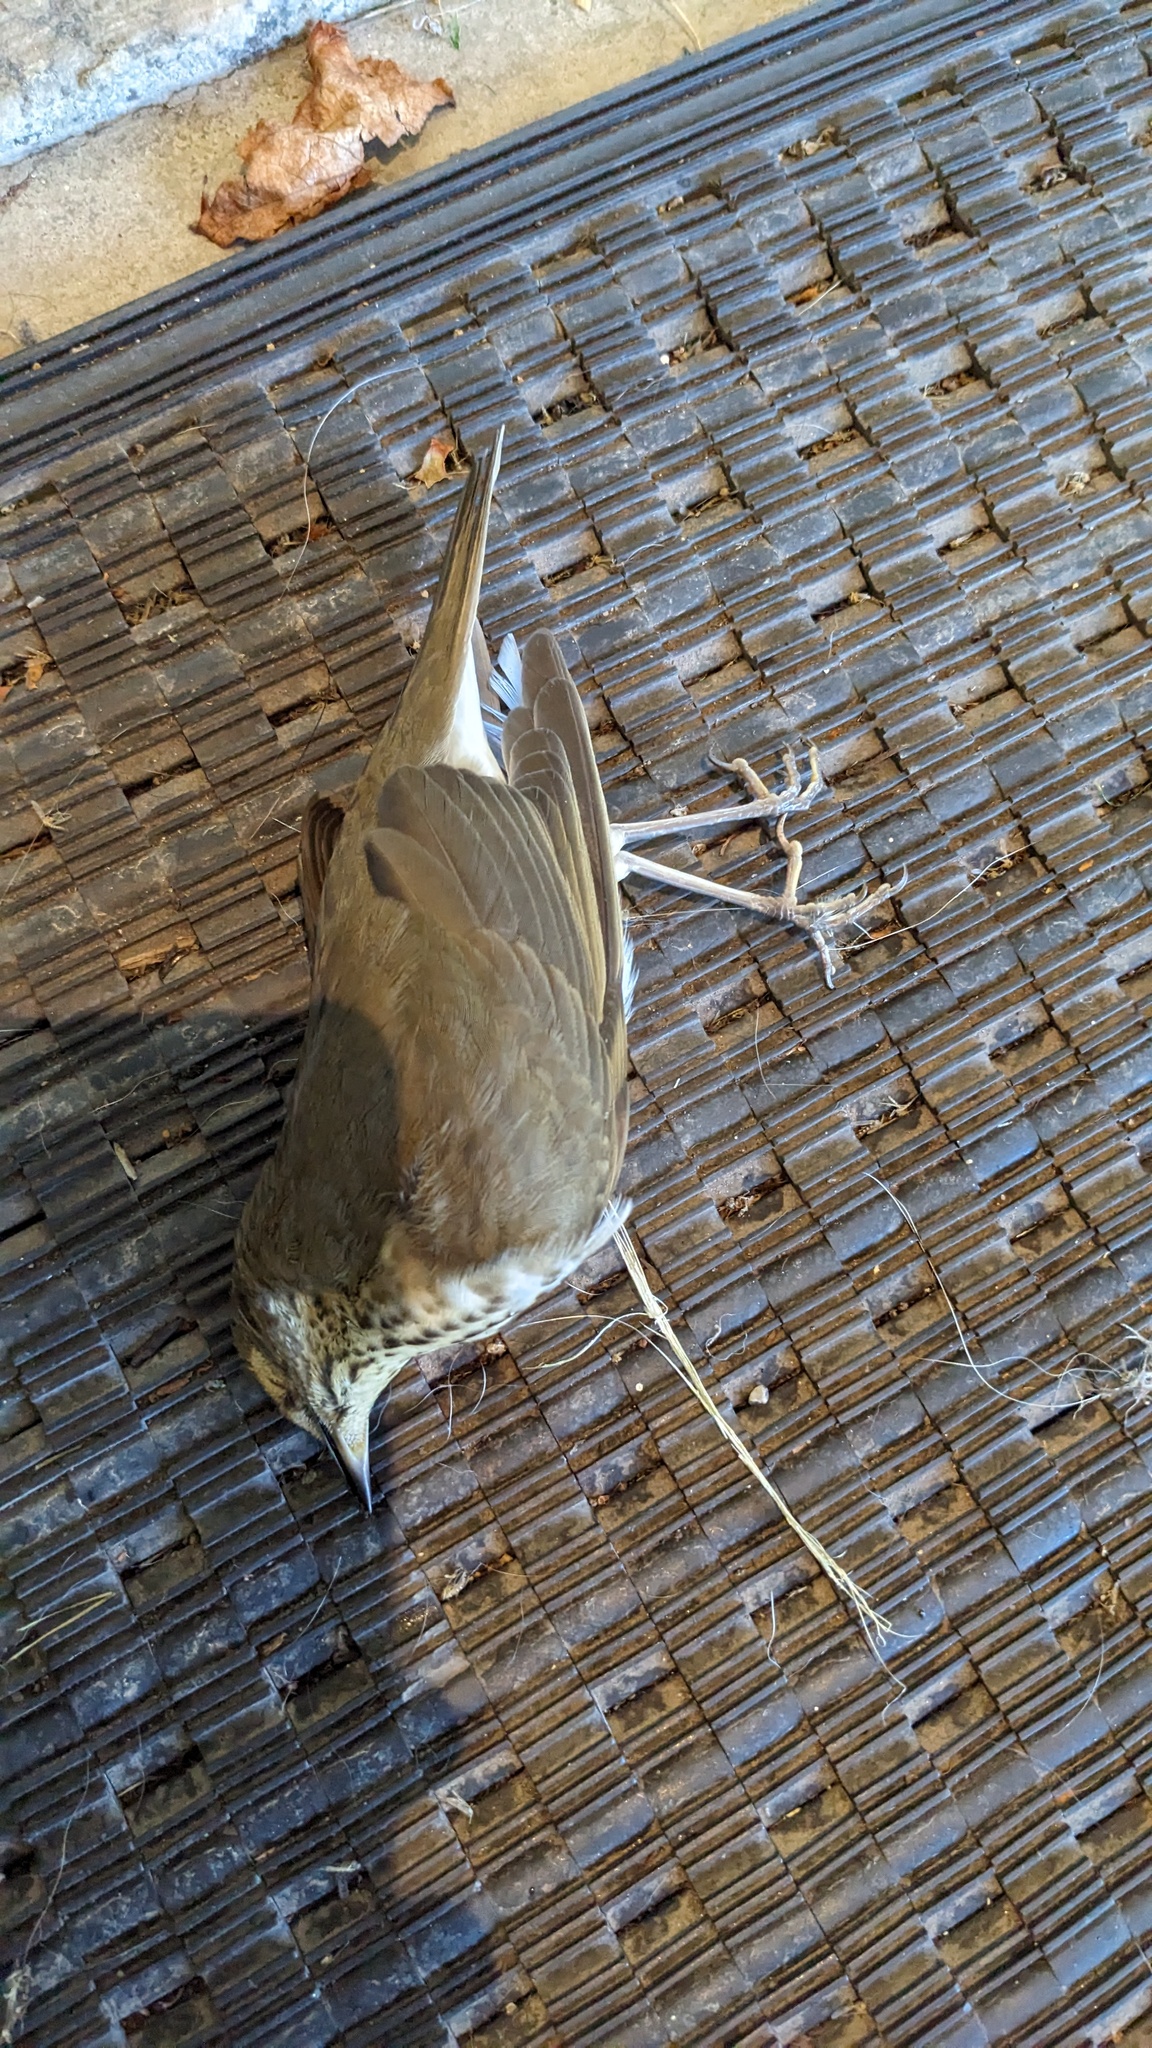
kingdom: Animalia
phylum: Chordata
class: Aves
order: Passeriformes
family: Turdidae
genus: Catharus
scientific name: Catharus ustulatus
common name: Swainson's thrush
